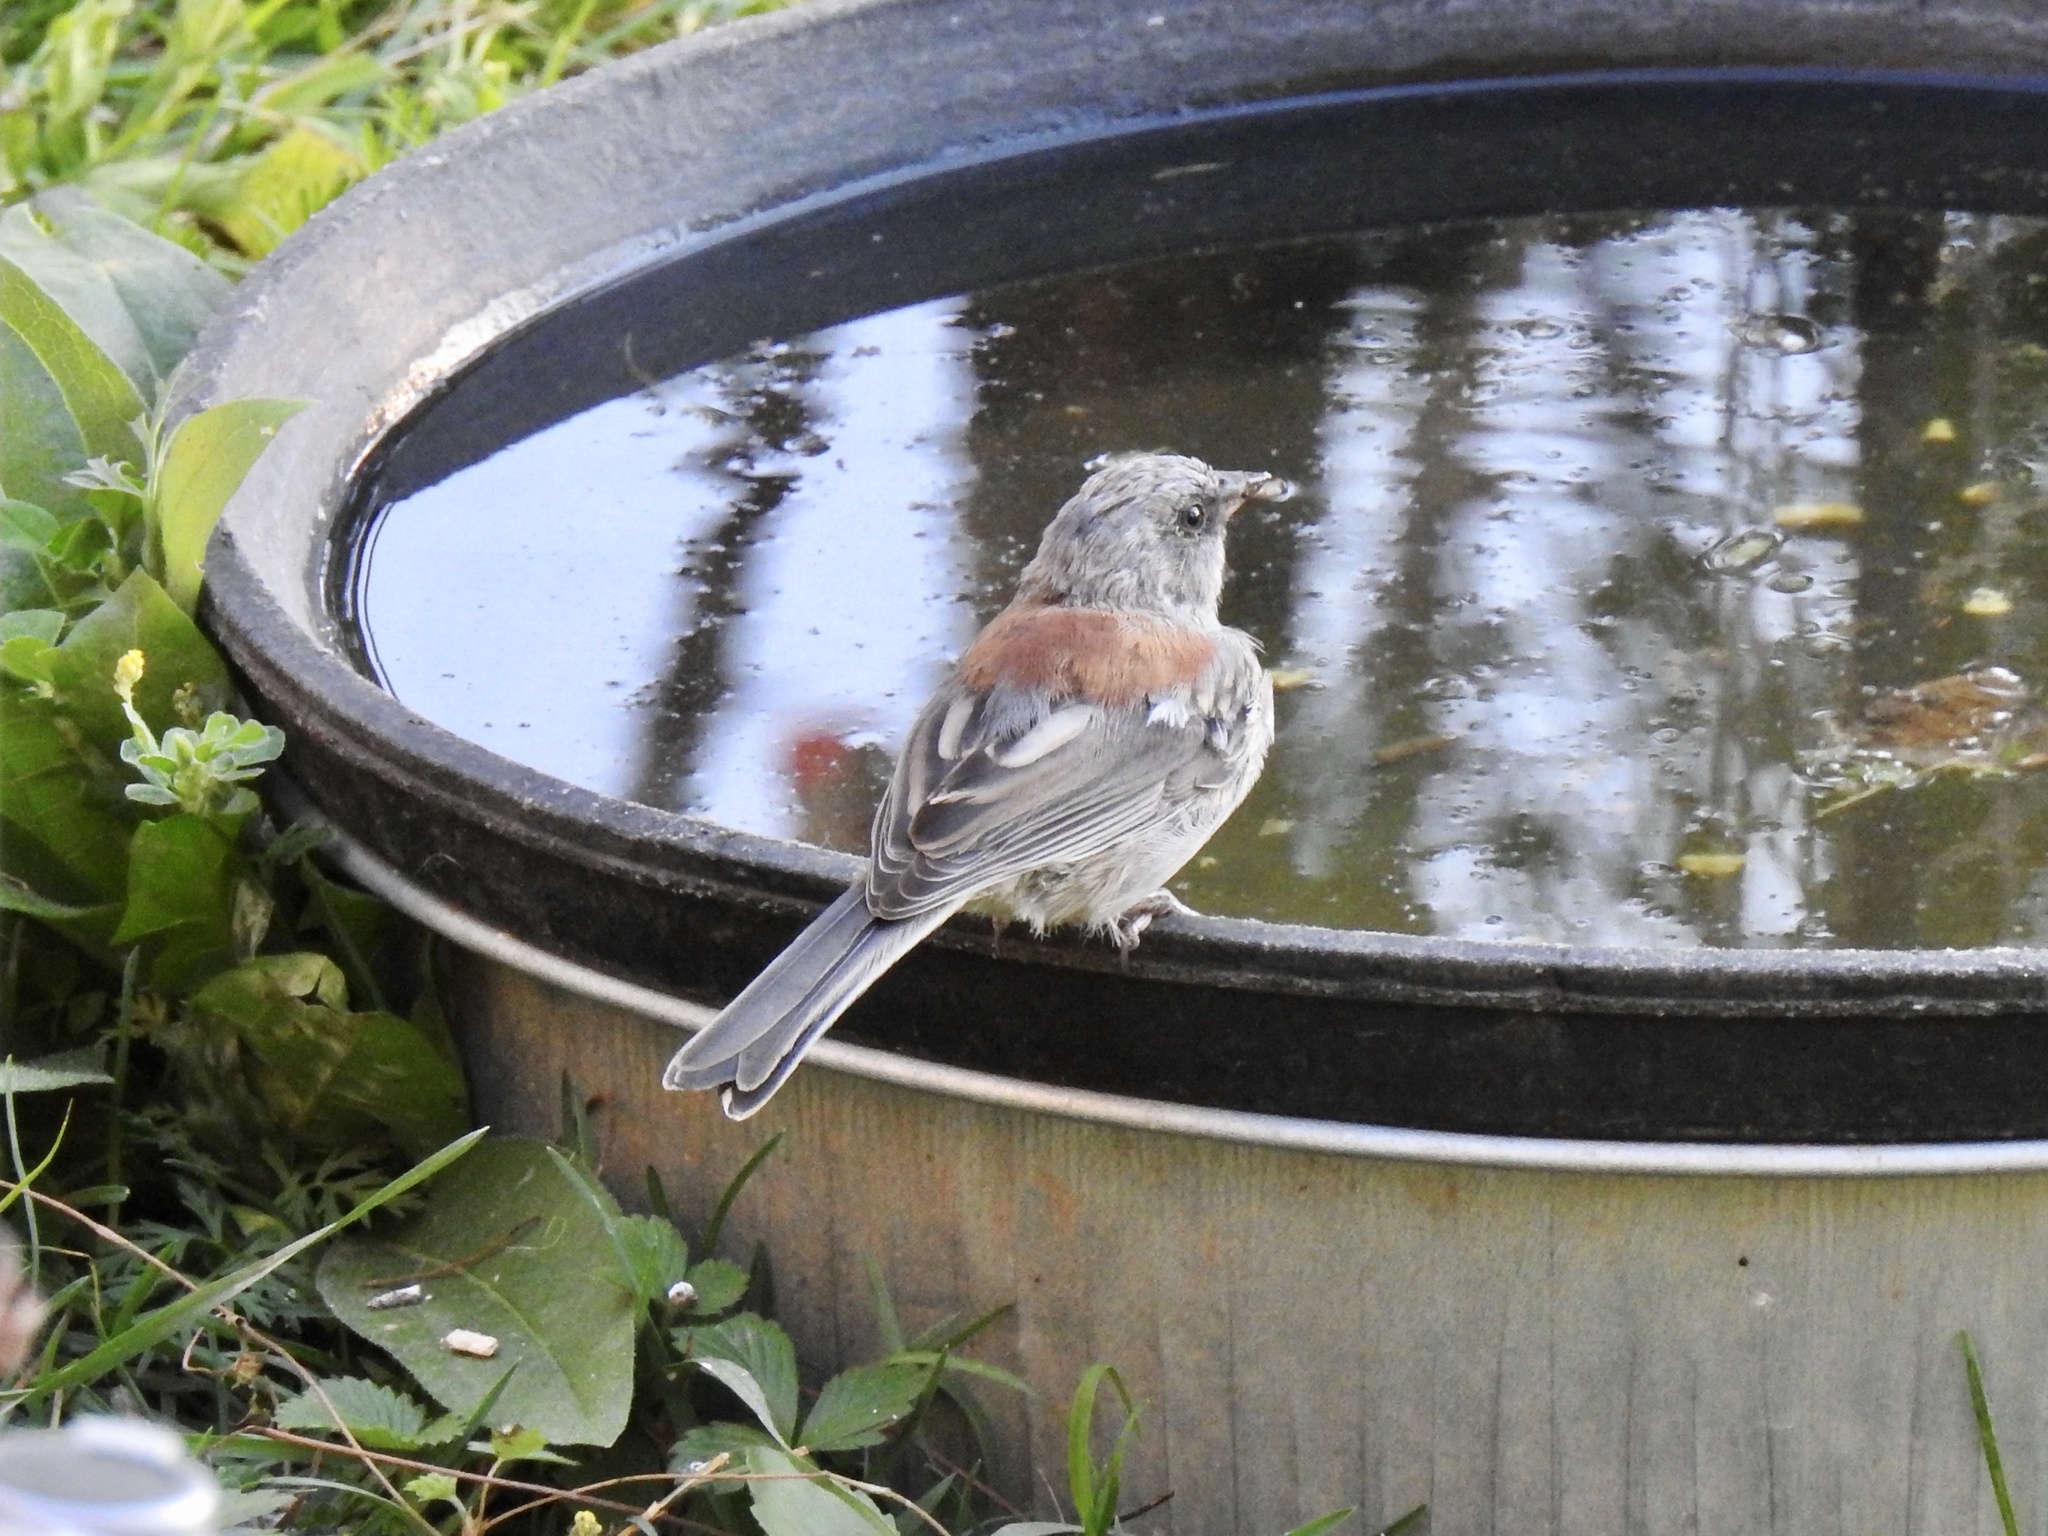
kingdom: Animalia
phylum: Chordata
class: Aves
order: Passeriformes
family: Passerellidae
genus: Junco
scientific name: Junco hyemalis
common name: Dark-eyed junco
